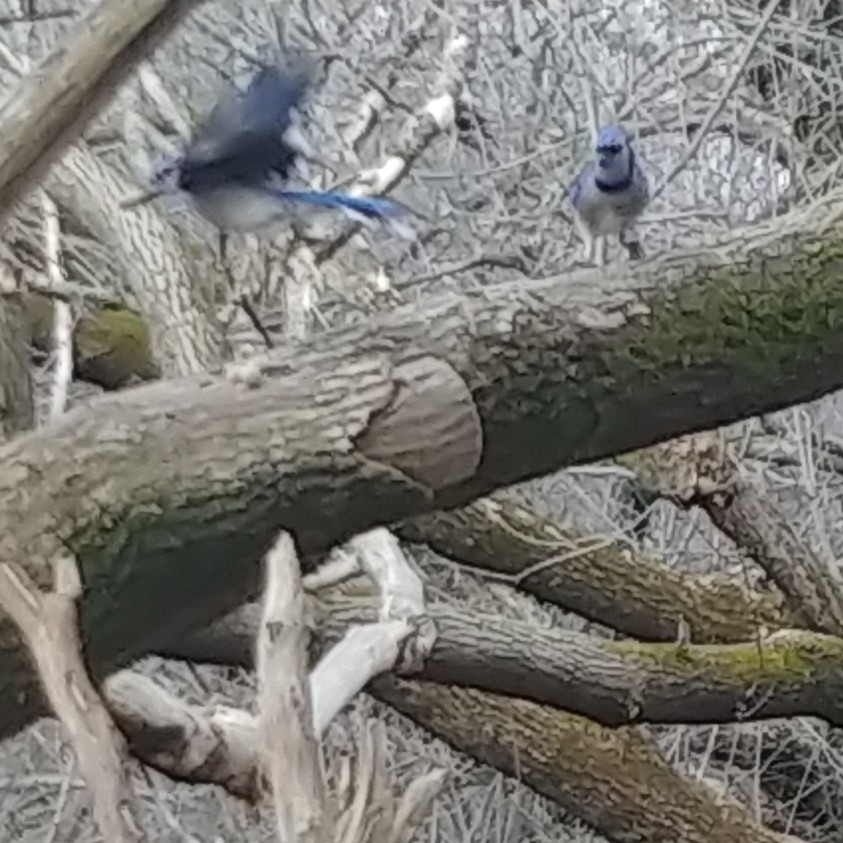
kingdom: Animalia
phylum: Chordata
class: Aves
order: Passeriformes
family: Corvidae
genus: Cyanocitta
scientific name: Cyanocitta cristata
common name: Blue jay
